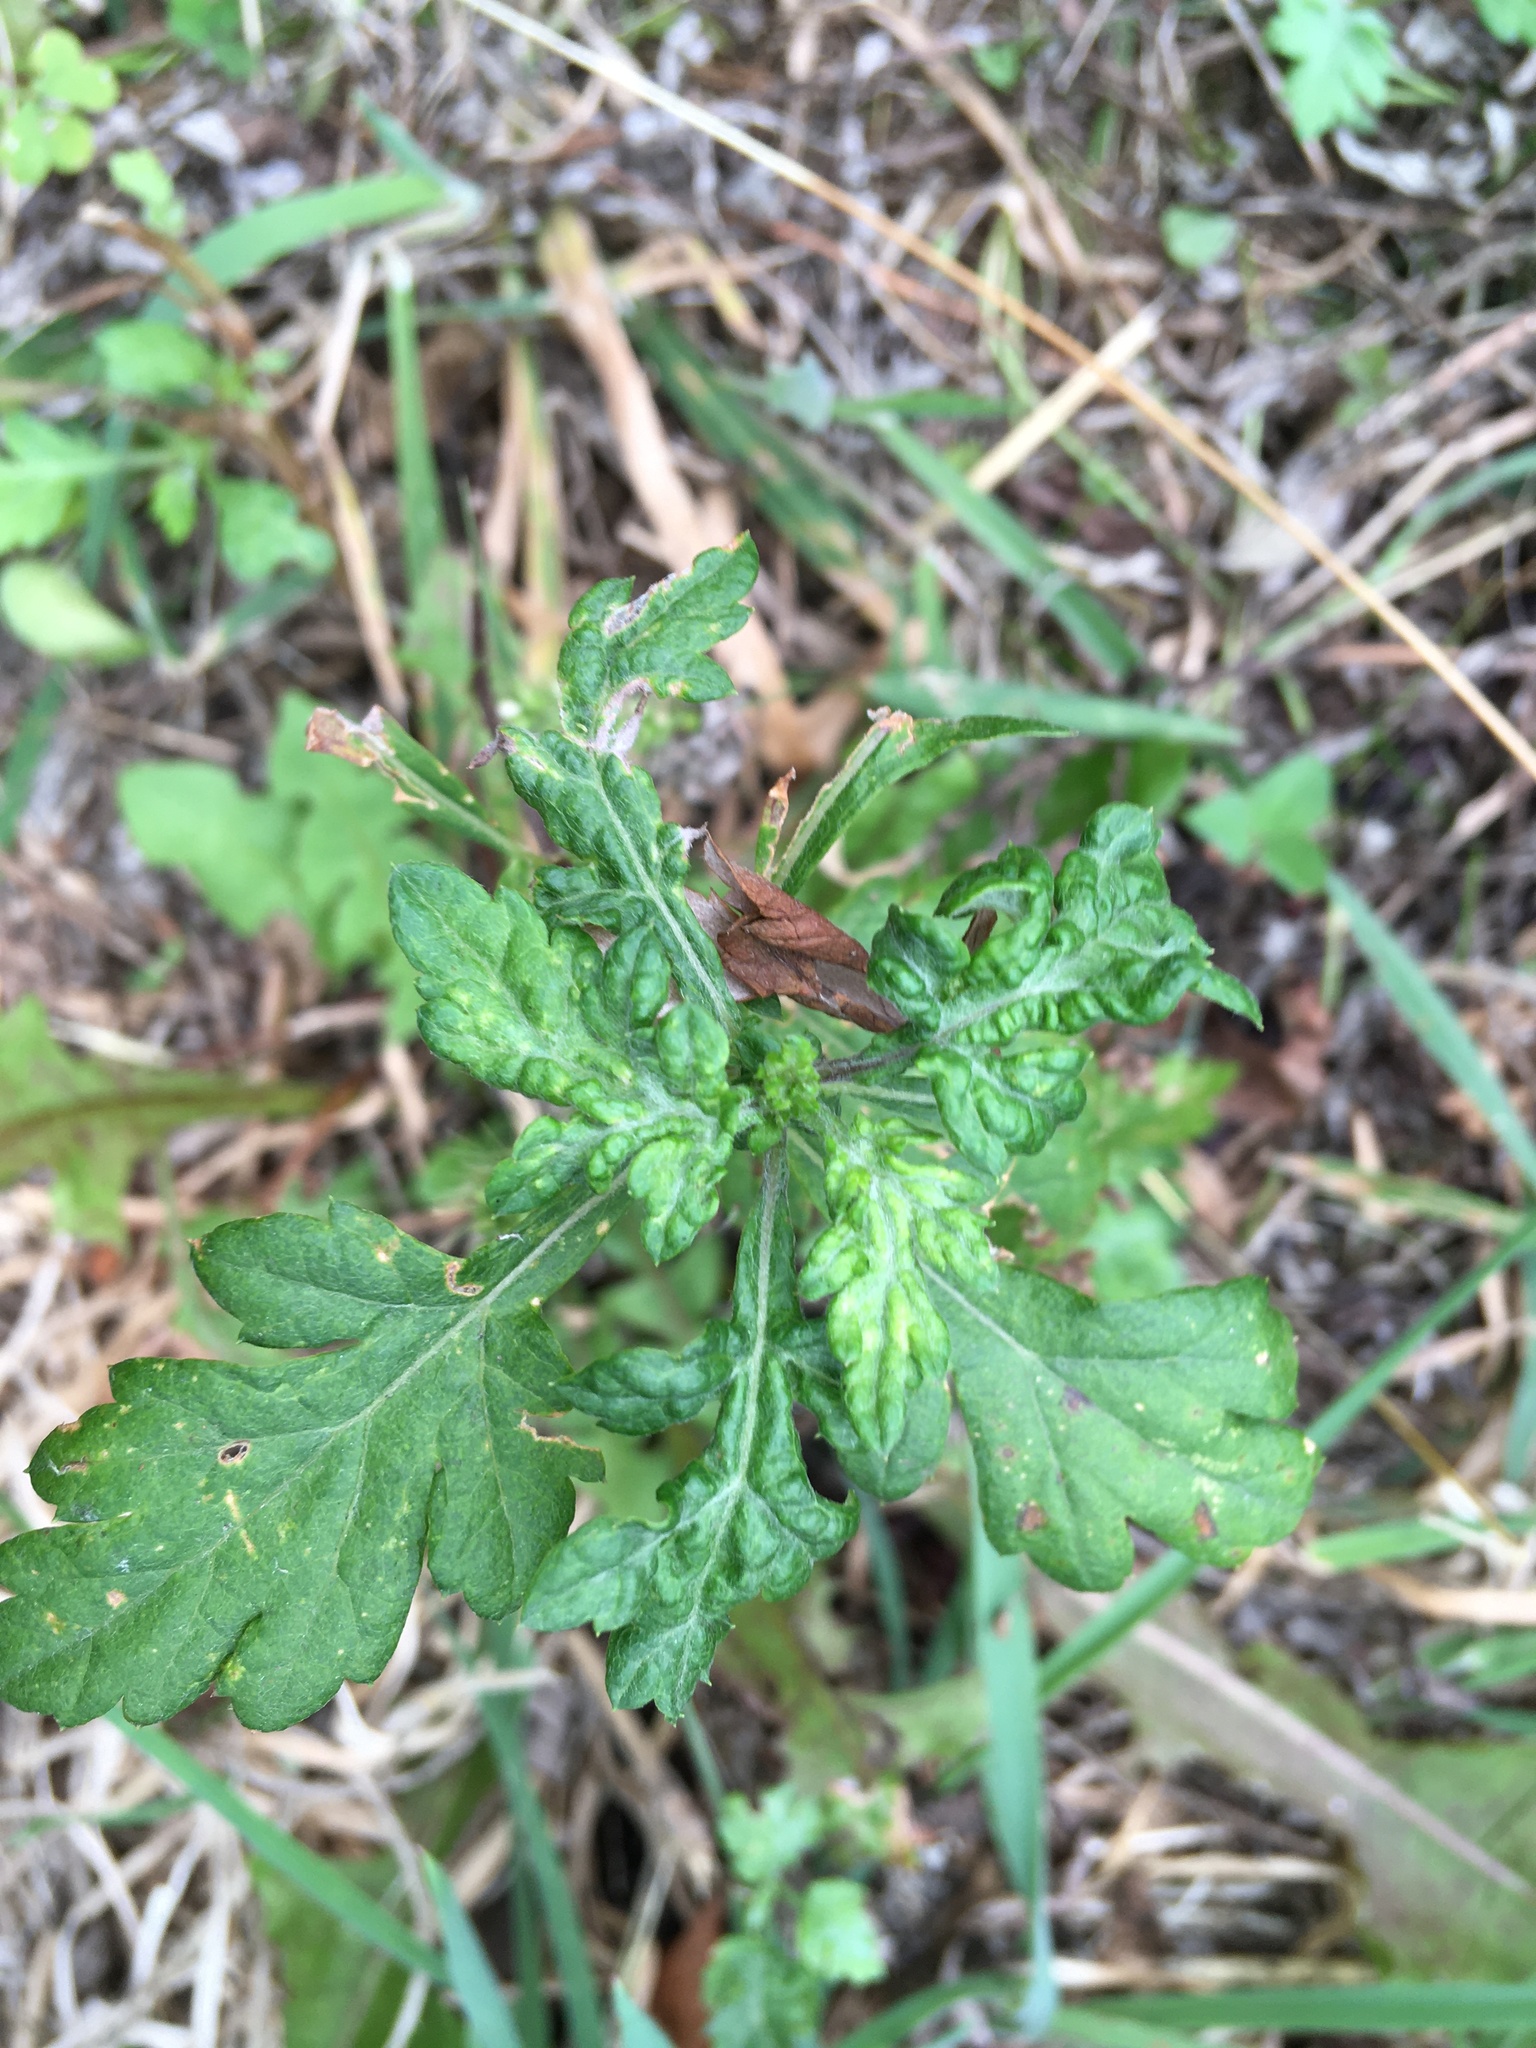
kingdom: Plantae
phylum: Tracheophyta
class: Magnoliopsida
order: Asterales
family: Asteraceae
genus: Artemisia
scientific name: Artemisia vulgaris
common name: Mugwort
